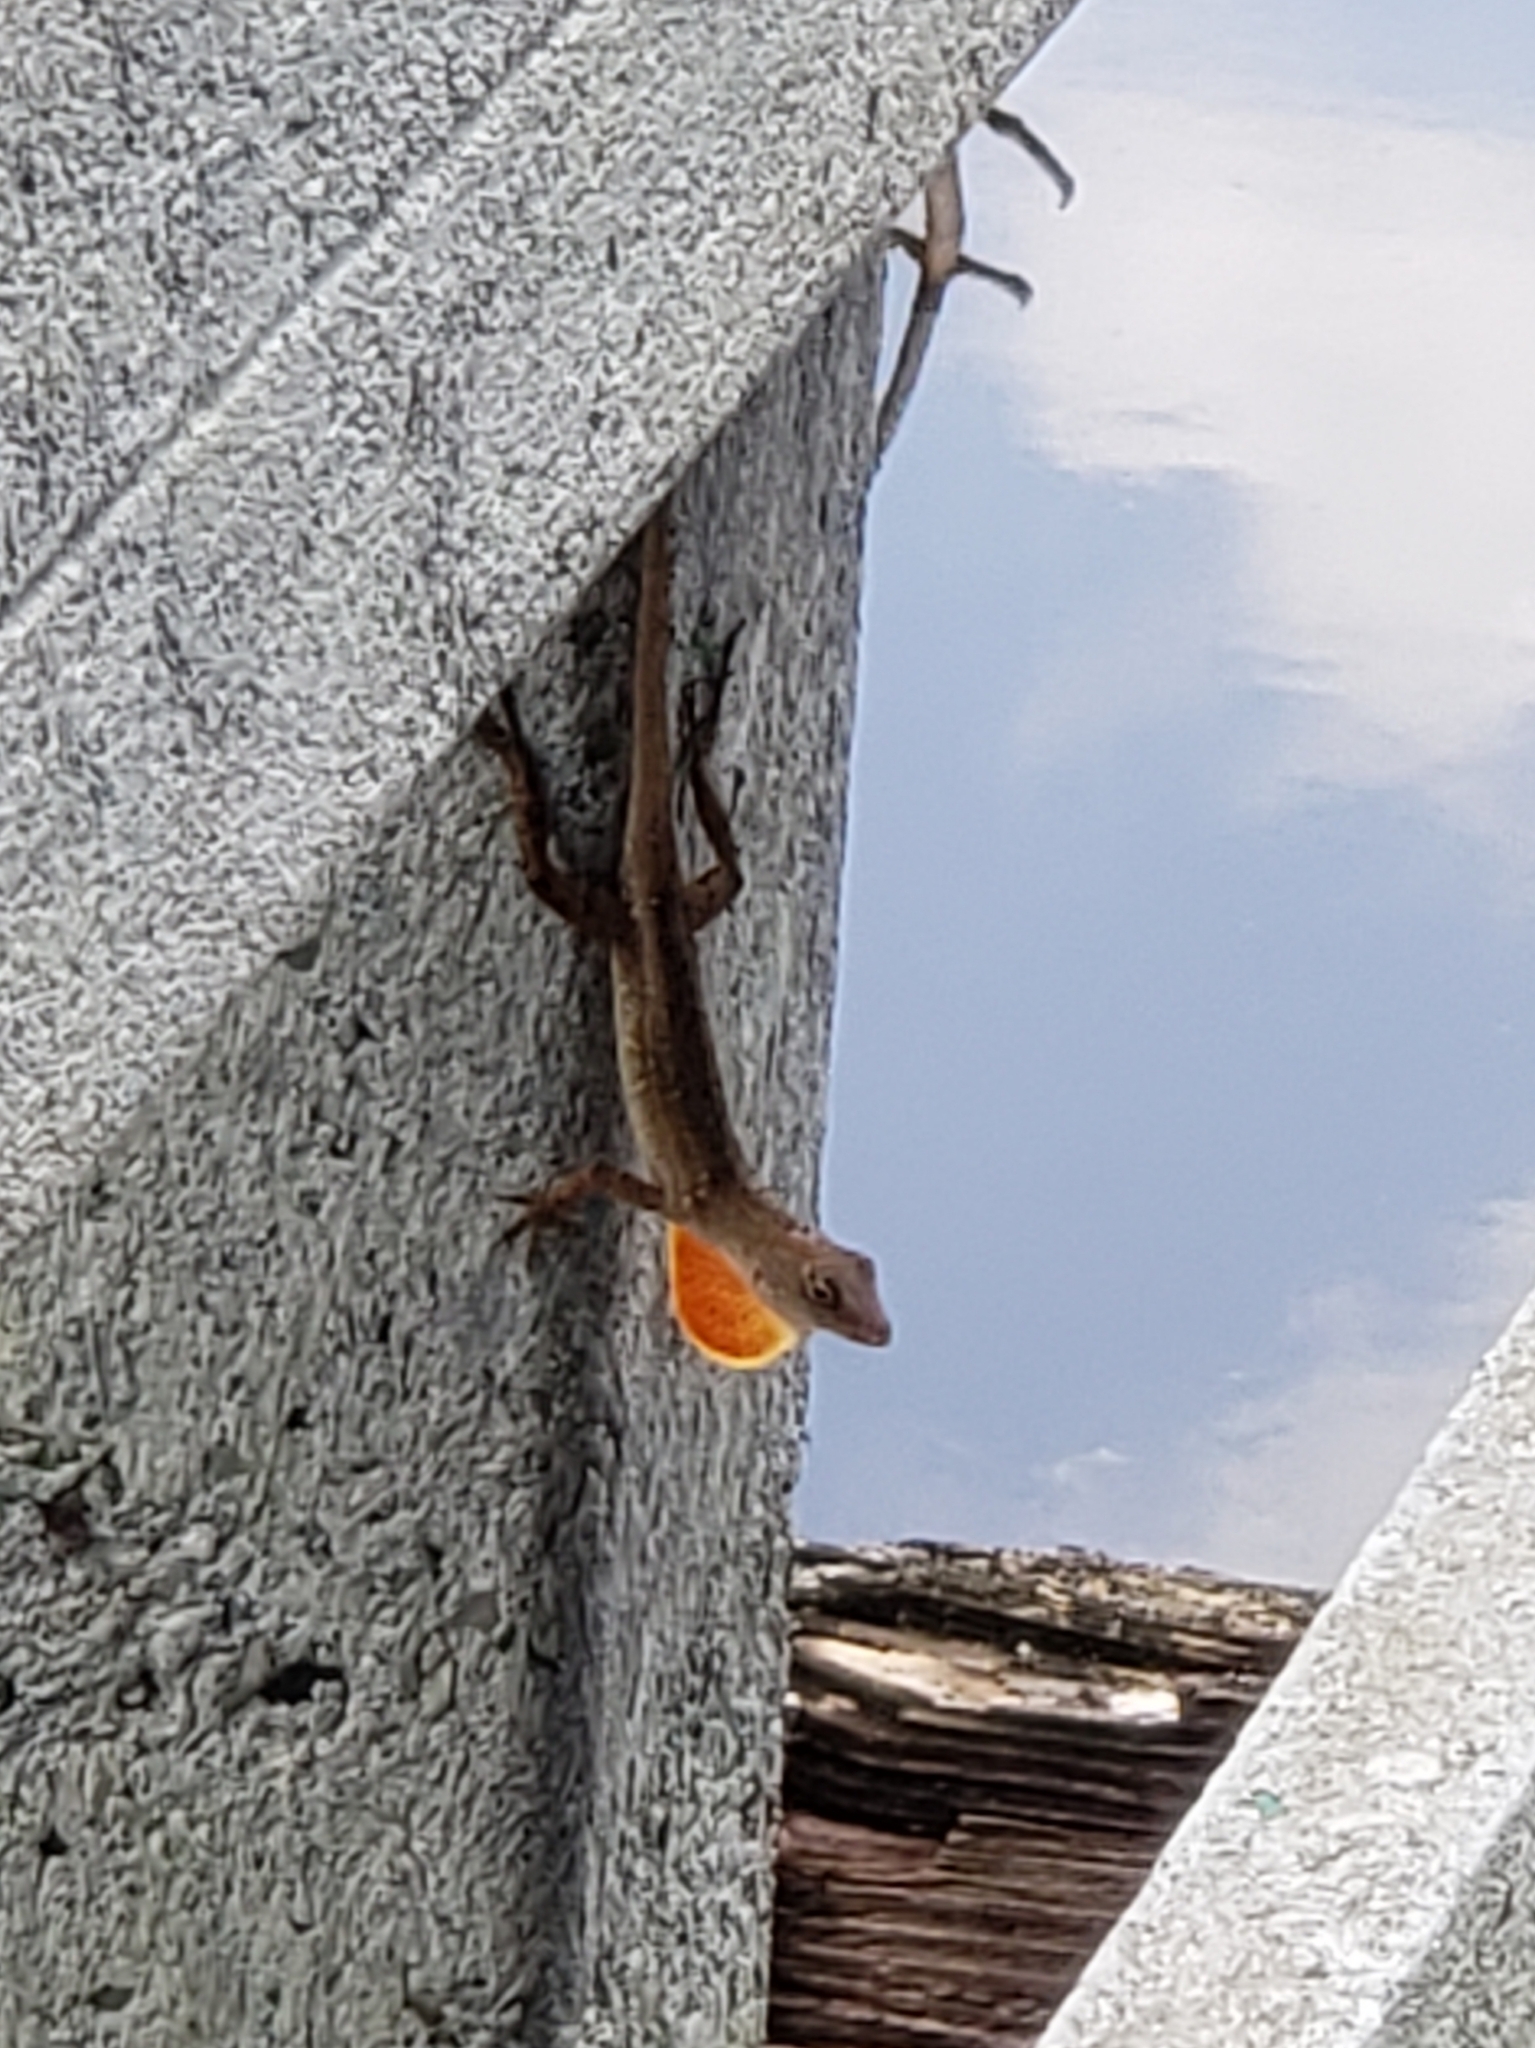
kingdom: Animalia
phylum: Chordata
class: Squamata
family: Dactyloidae
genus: Anolis
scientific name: Anolis sagrei
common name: Brown anole
